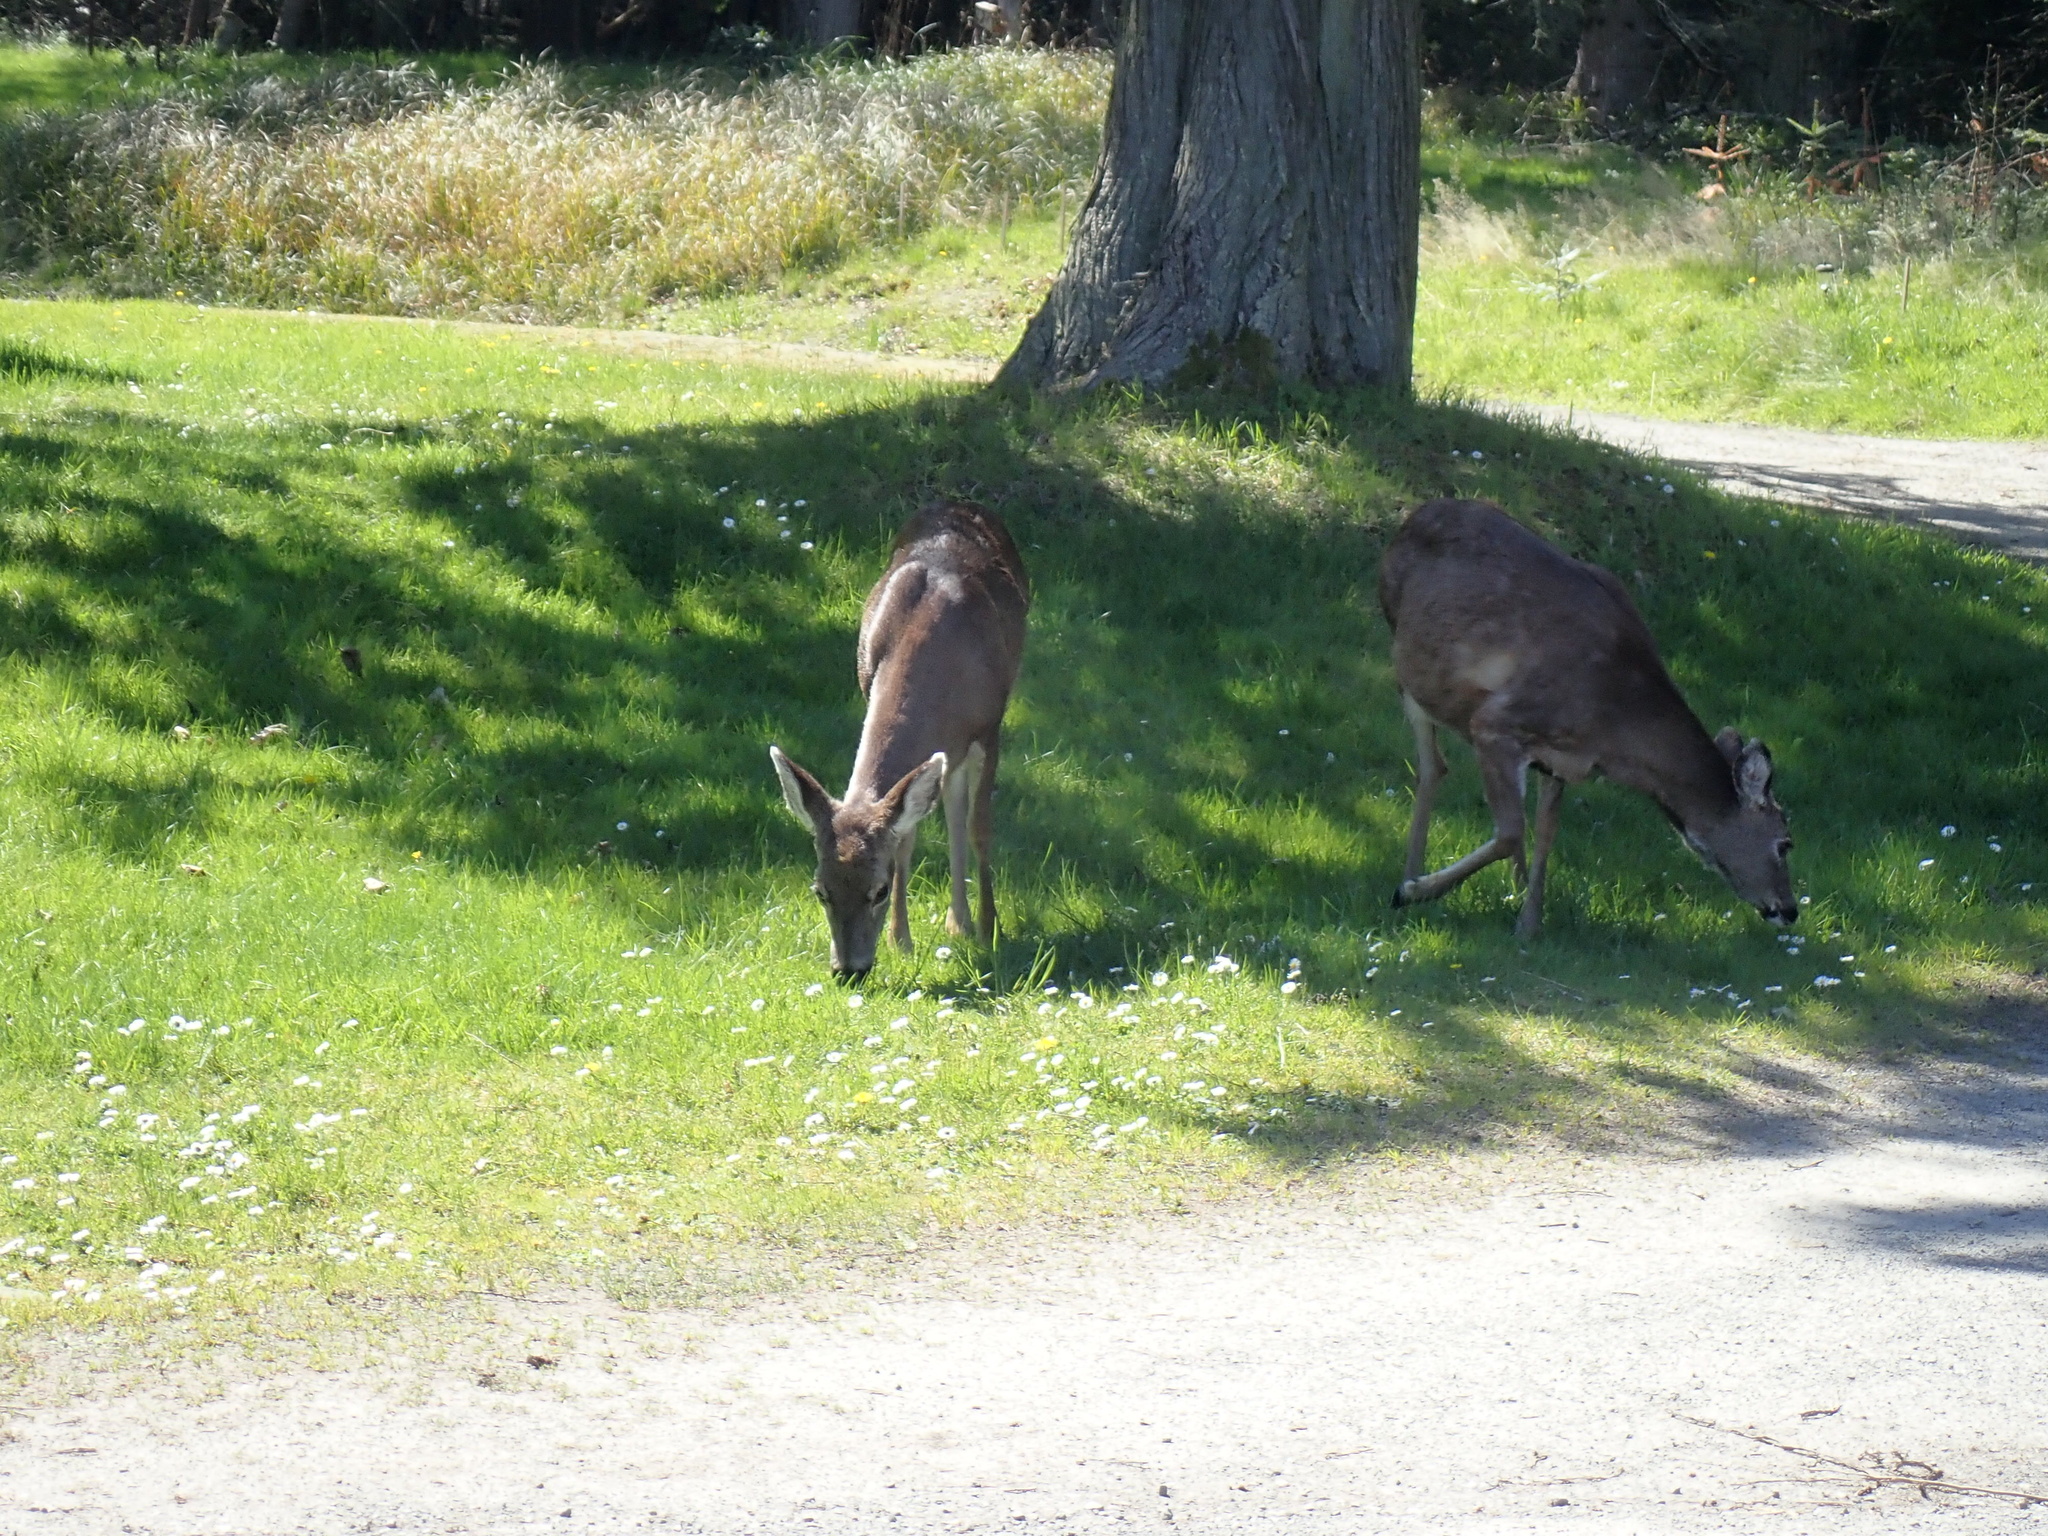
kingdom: Animalia
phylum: Chordata
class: Mammalia
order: Artiodactyla
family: Cervidae
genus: Odocoileus
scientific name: Odocoileus hemionus
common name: Mule deer
